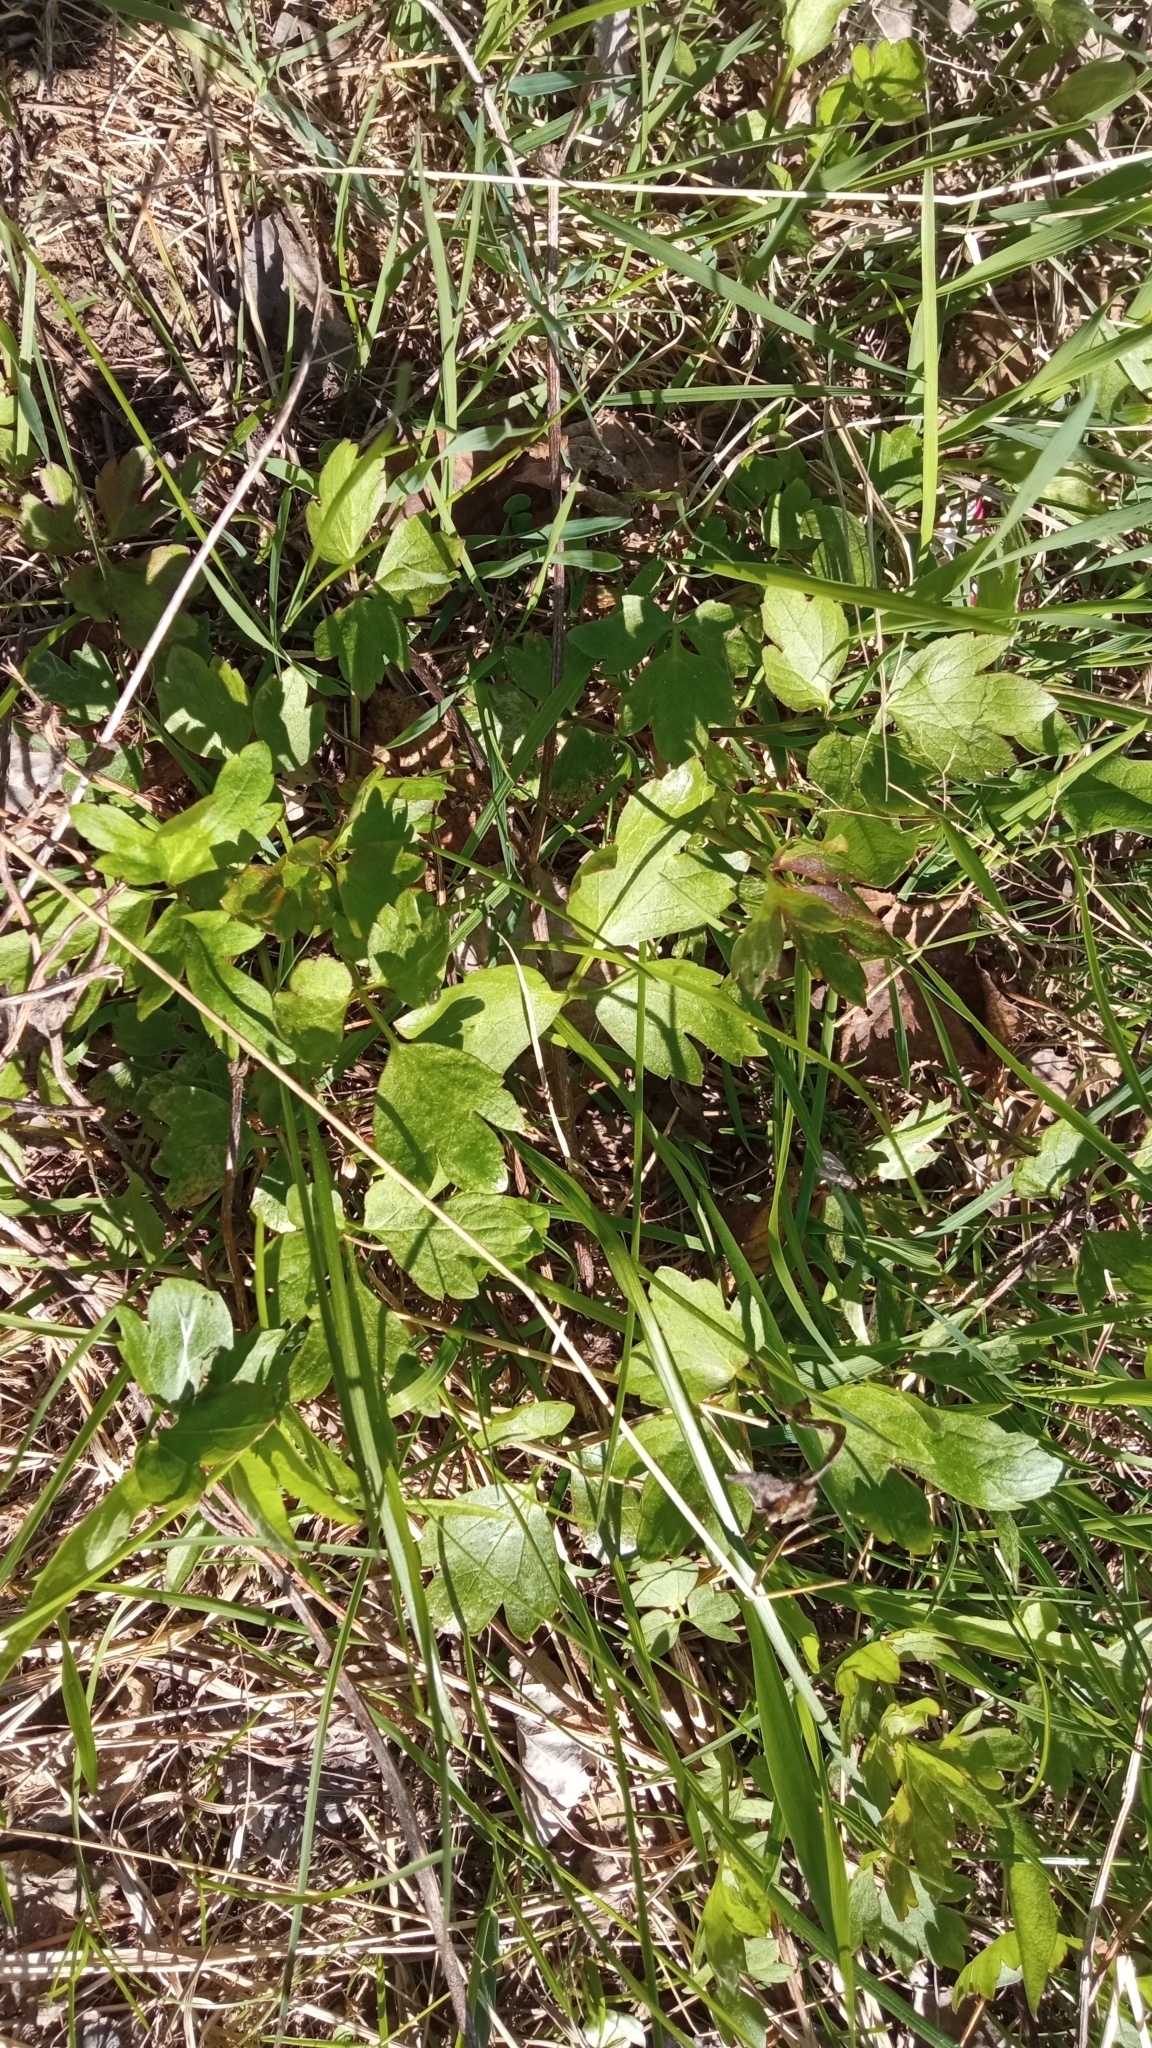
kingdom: Plantae
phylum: Tracheophyta
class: Magnoliopsida
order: Ranunculales
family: Ranunculaceae
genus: Ranunculus
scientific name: Ranunculus repens
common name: Creeping buttercup
